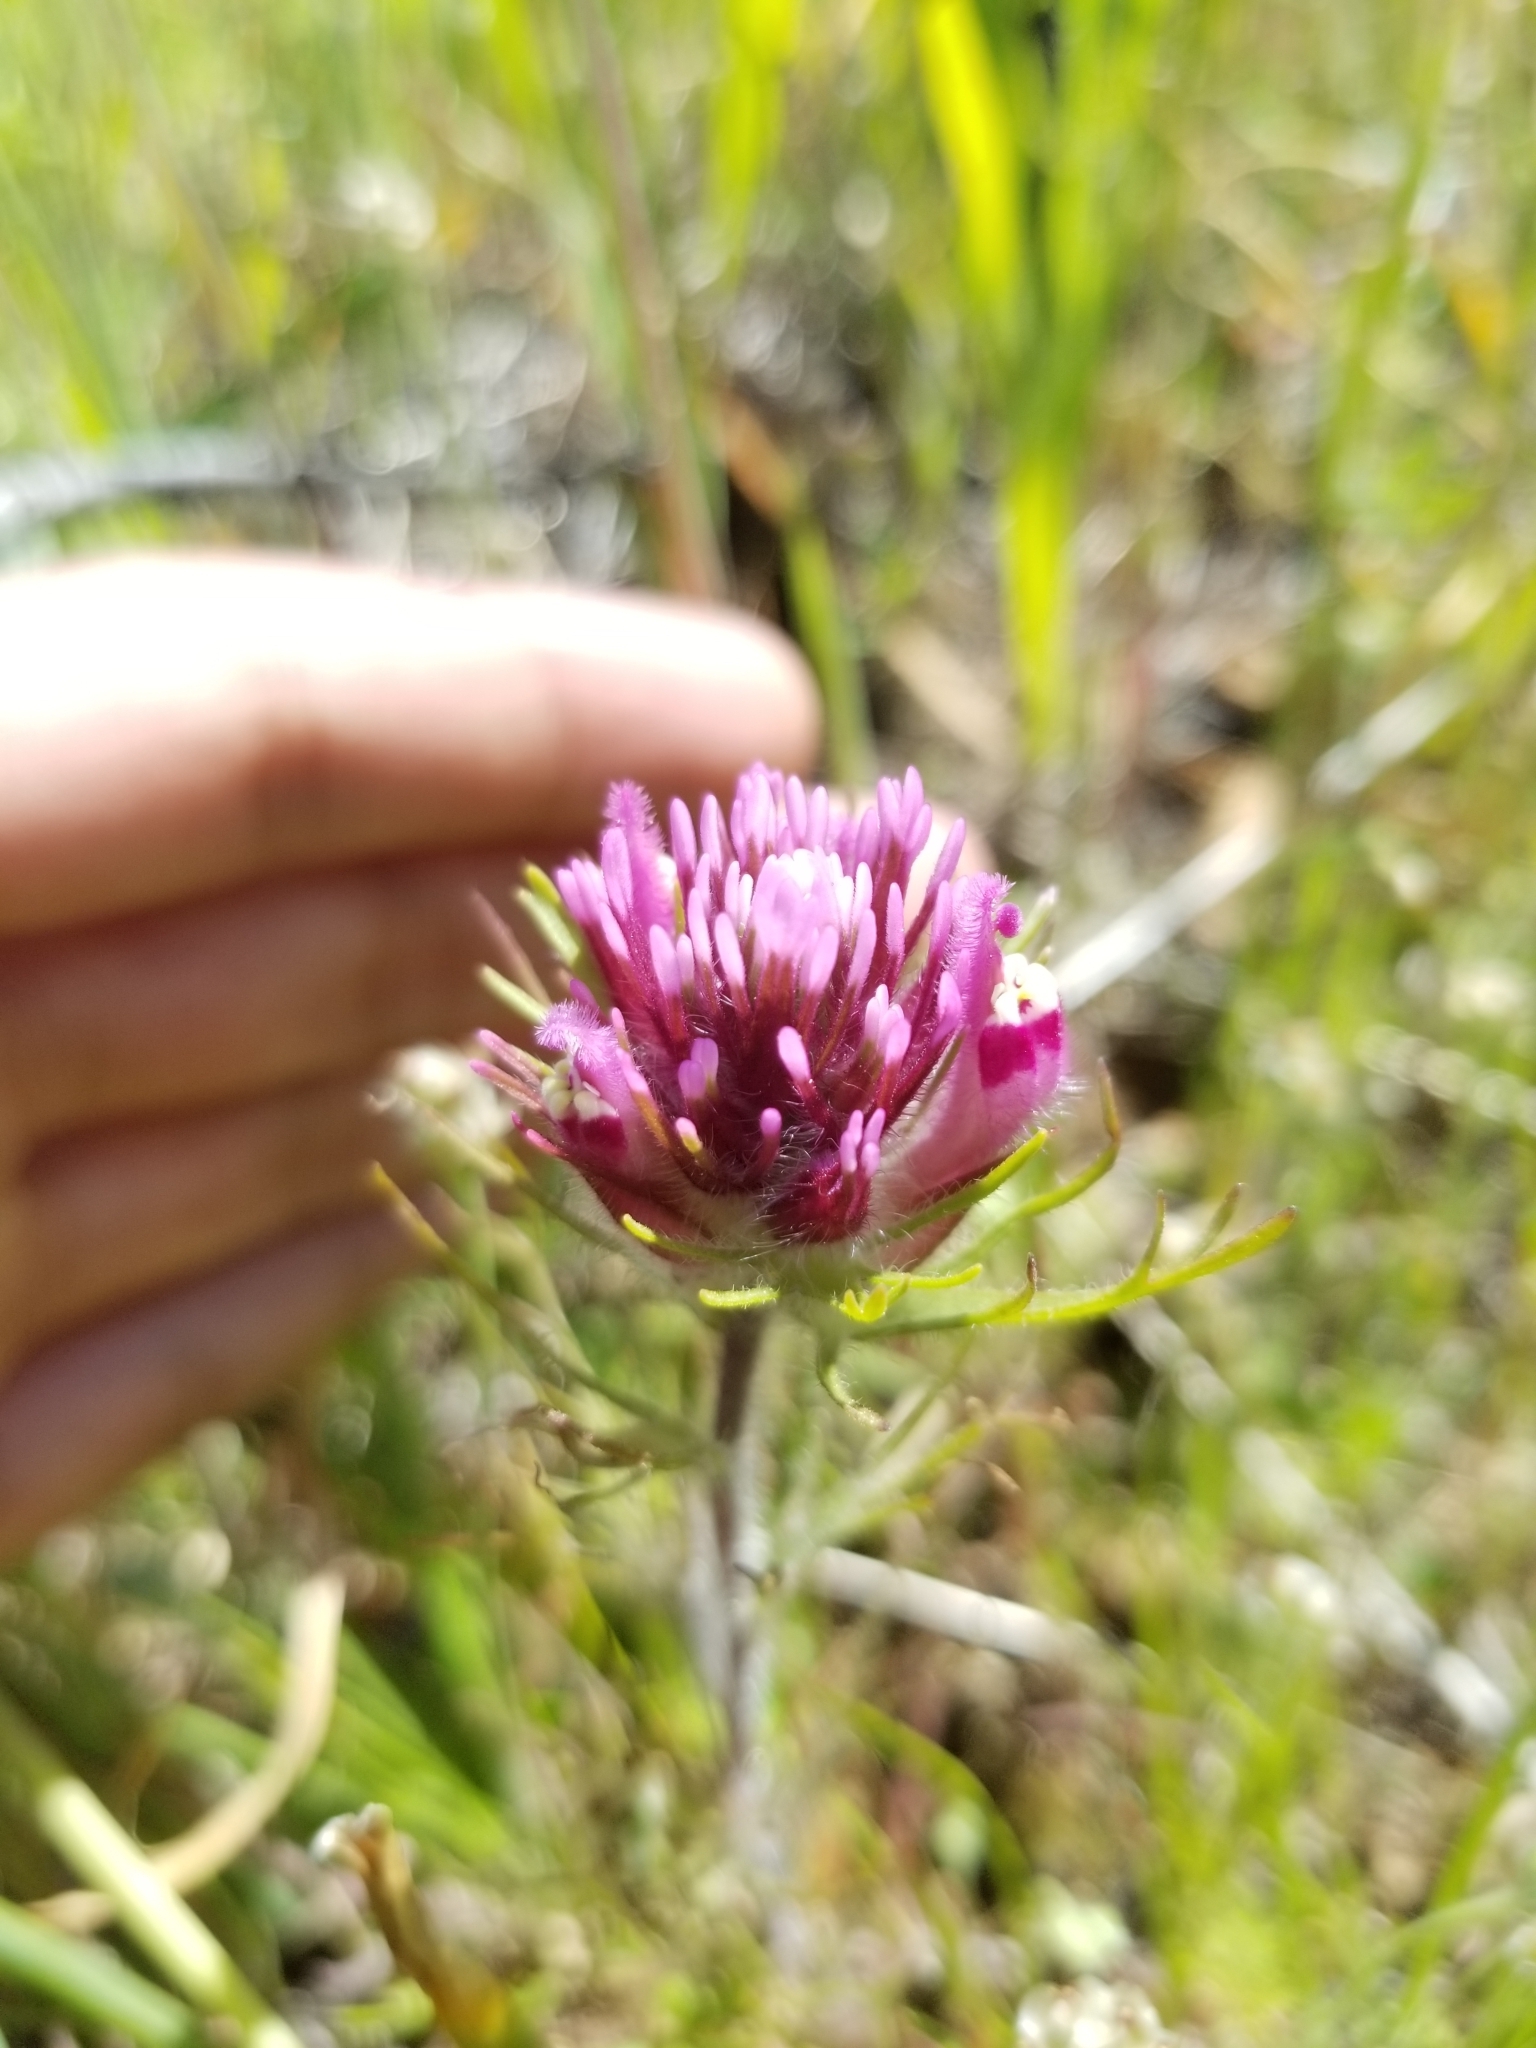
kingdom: Plantae
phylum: Tracheophyta
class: Magnoliopsida
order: Lamiales
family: Orobanchaceae
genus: Castilleja
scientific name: Castilleja exserta
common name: Purple owl-clover
